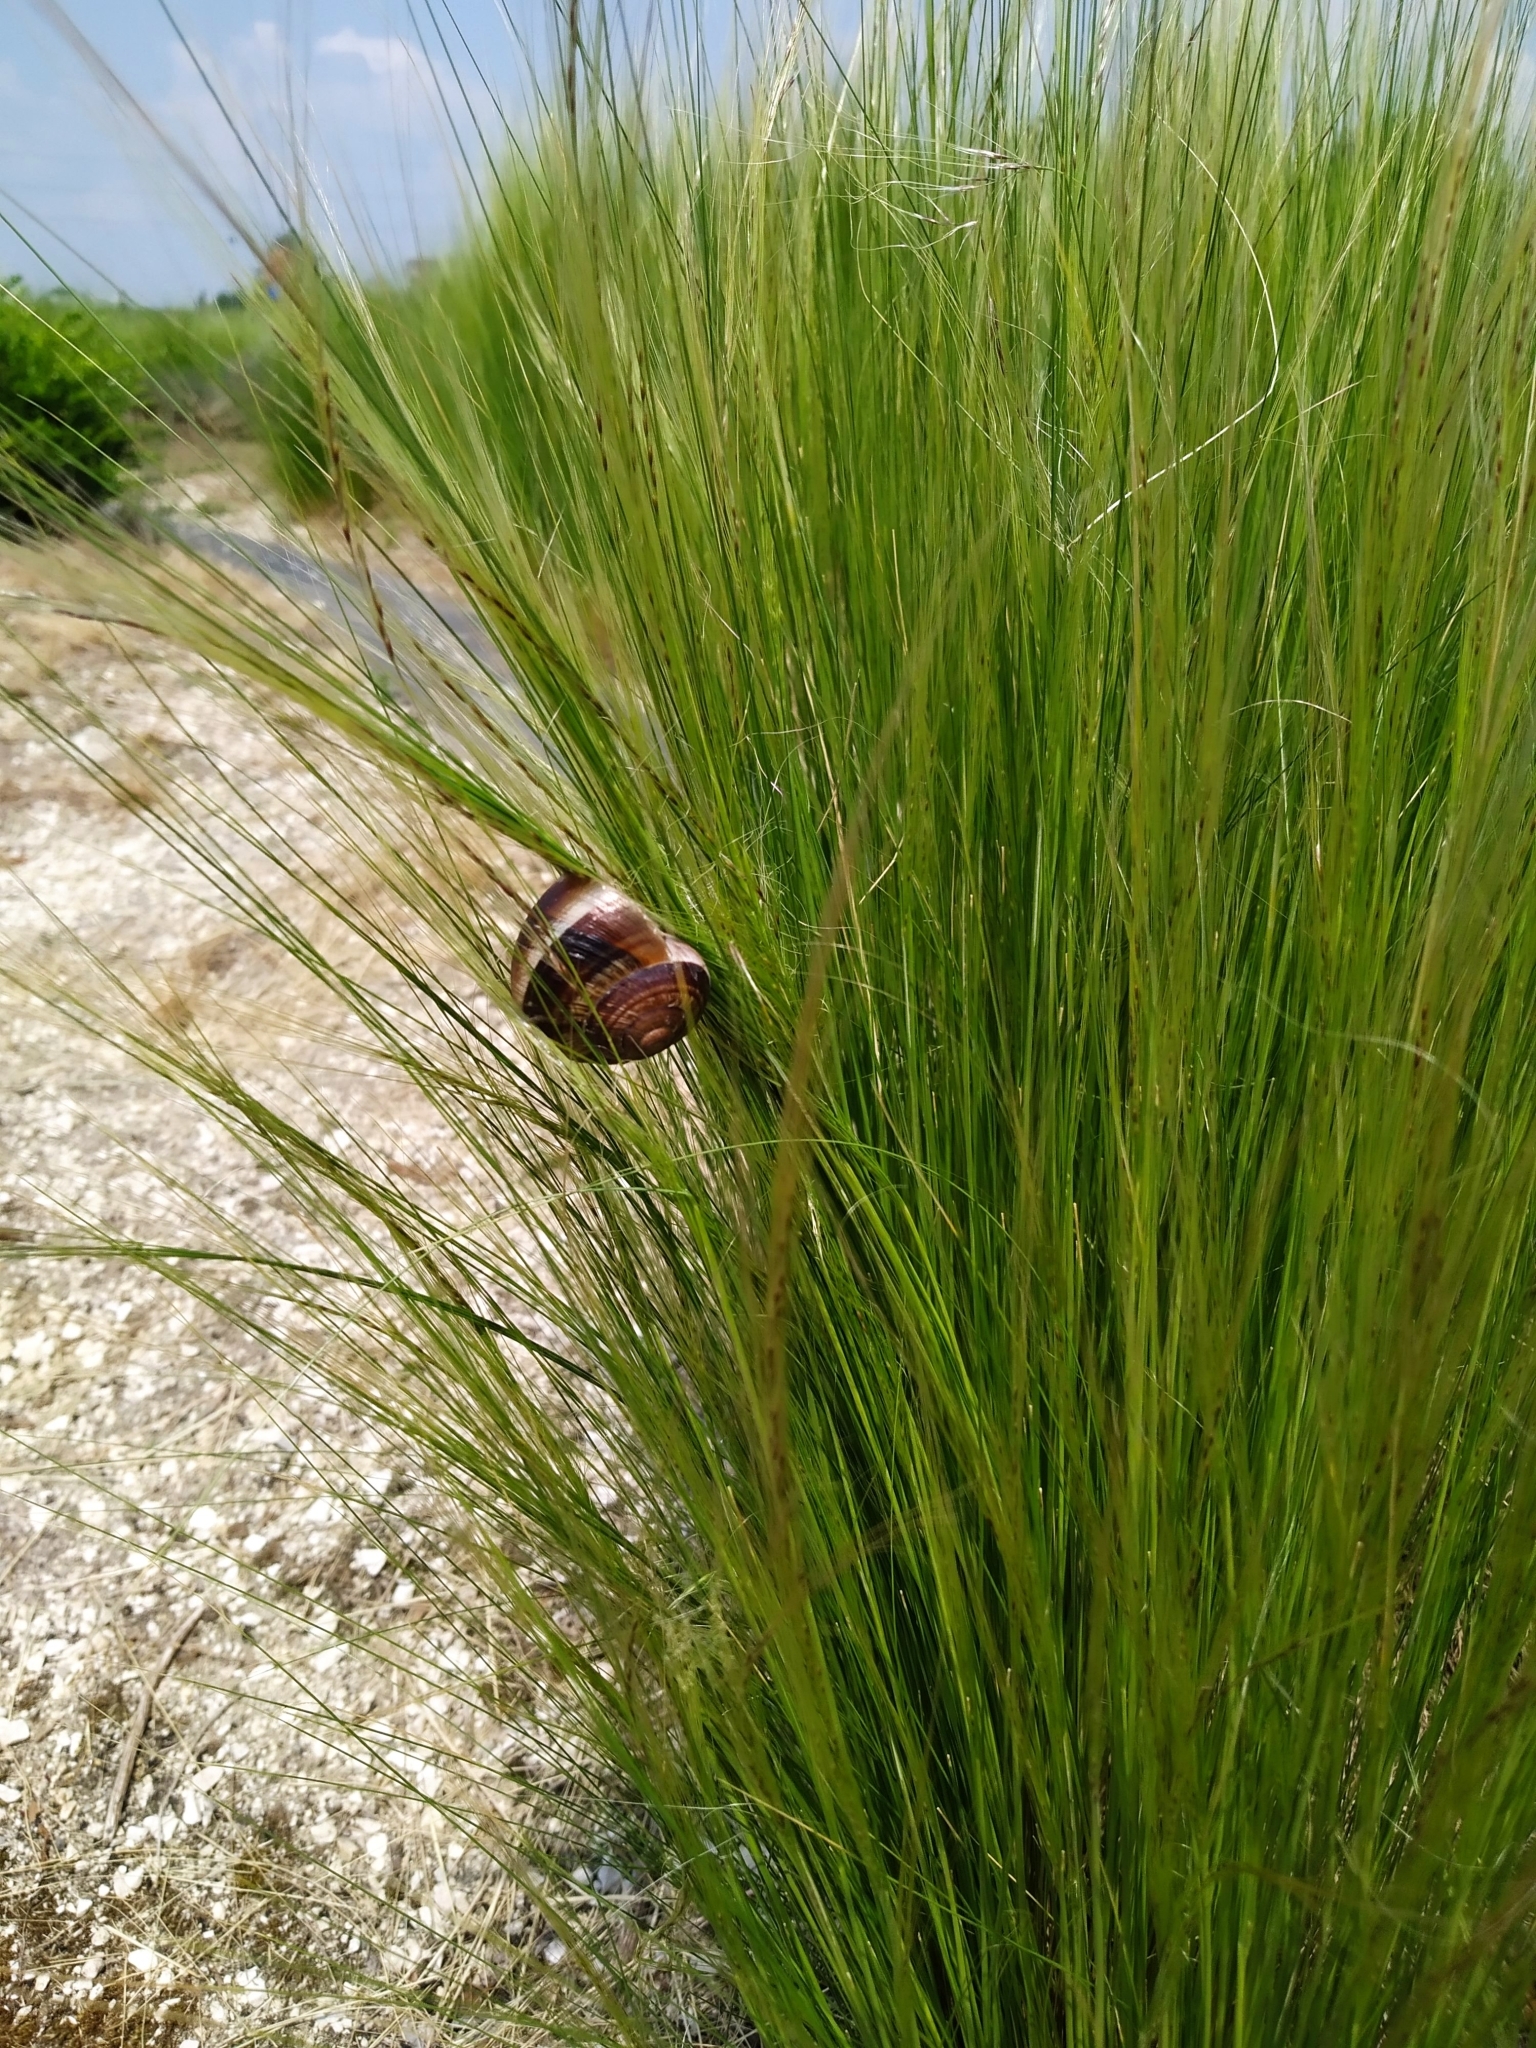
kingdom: Animalia
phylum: Mollusca
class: Gastropoda
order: Stylommatophora
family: Helicidae
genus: Helix
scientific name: Helix lucorum
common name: Turkish snail
